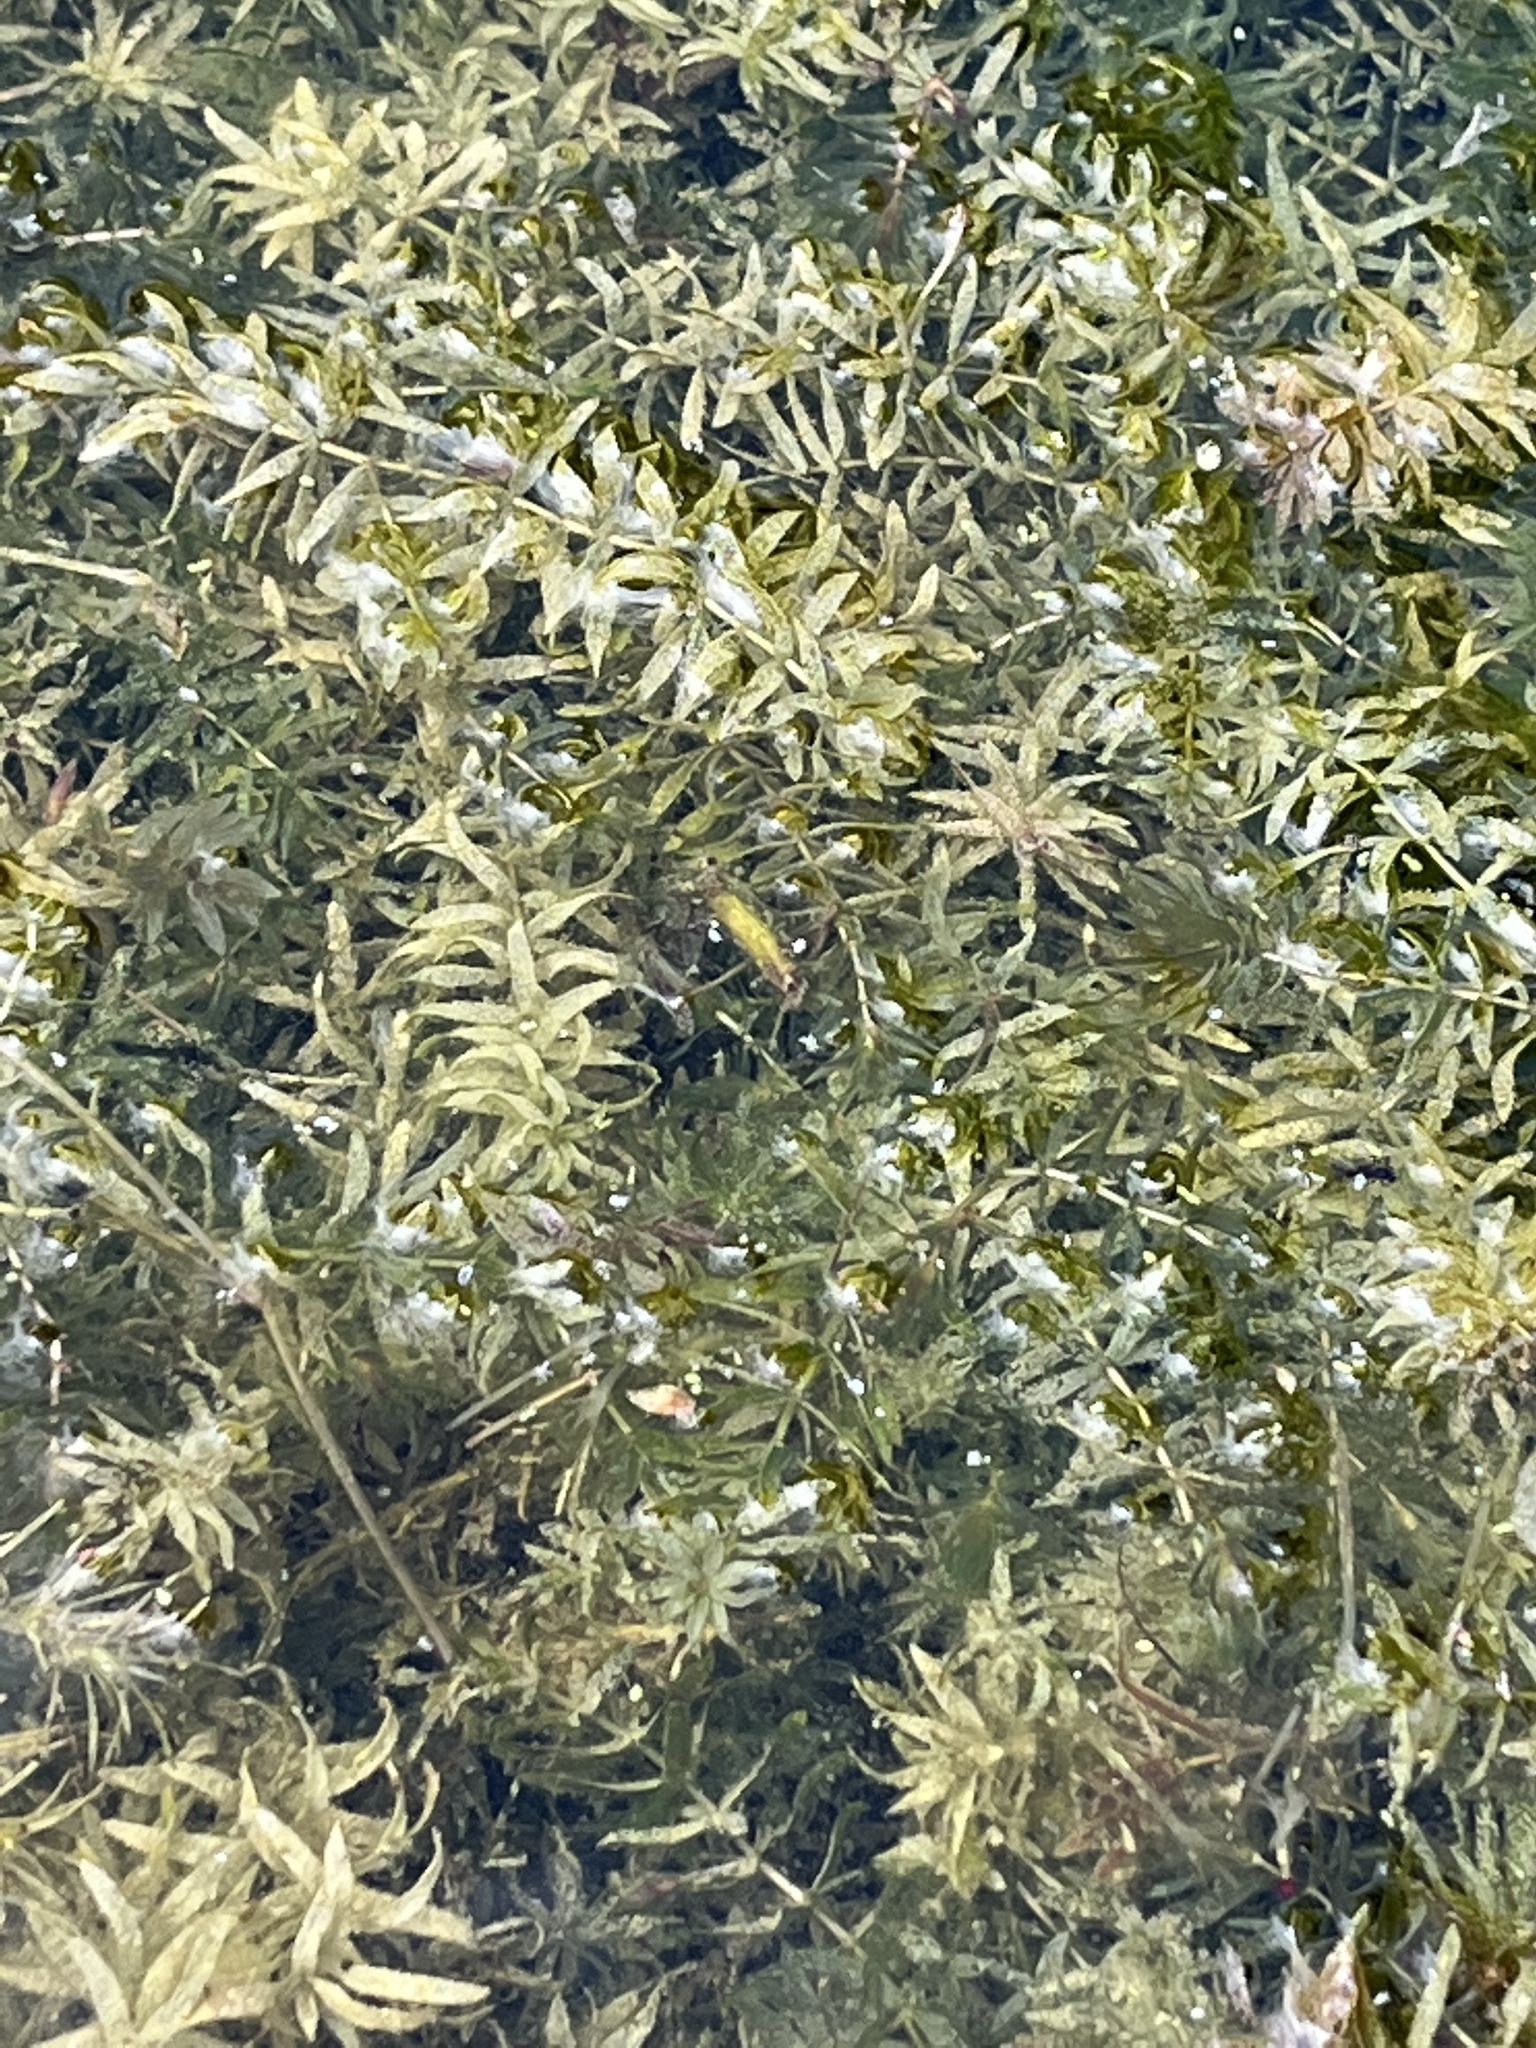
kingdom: Plantae
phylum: Tracheophyta
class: Liliopsida
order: Alismatales
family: Hydrocharitaceae
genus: Hydrilla
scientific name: Hydrilla verticillata
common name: Florida-elodea
